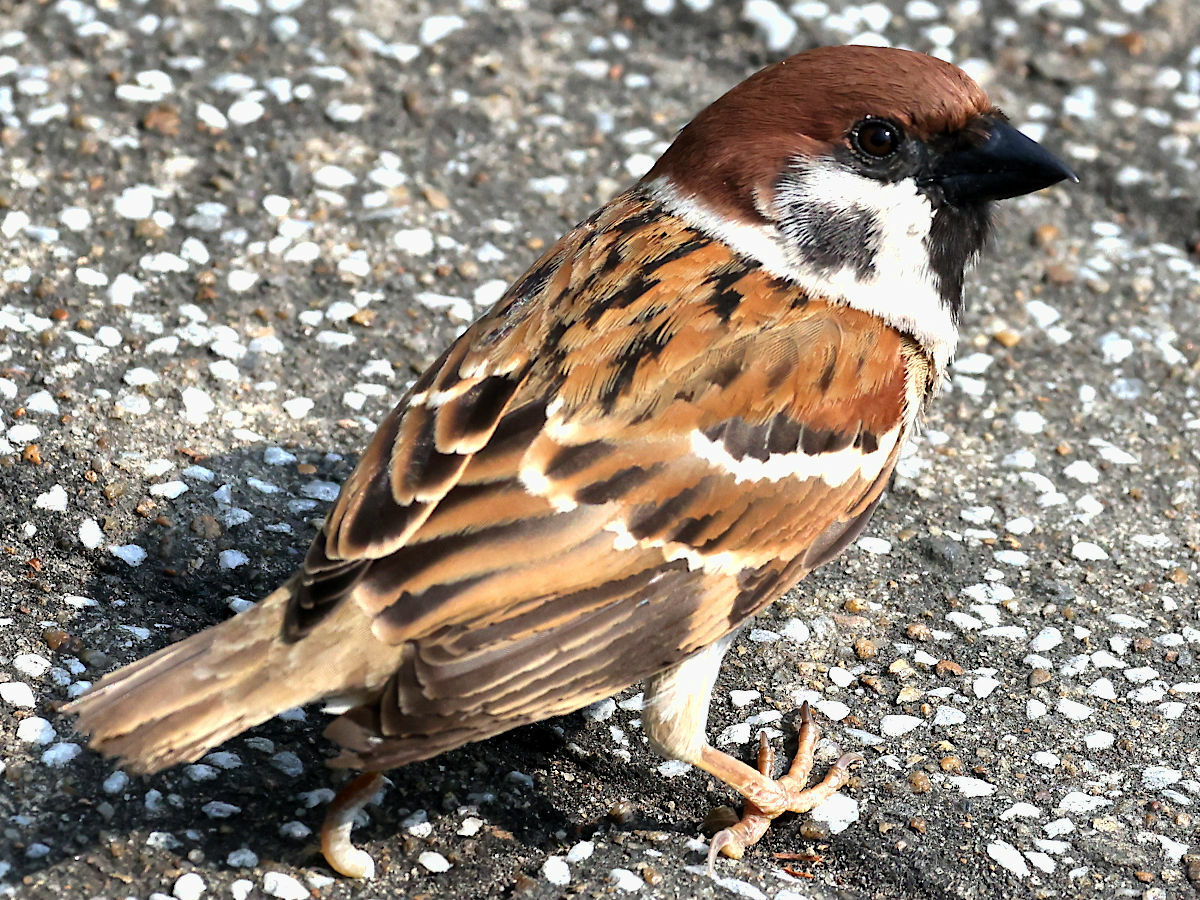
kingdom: Animalia
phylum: Chordata
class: Aves
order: Passeriformes
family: Passeridae
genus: Passer
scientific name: Passer montanus
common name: Eurasian tree sparrow
